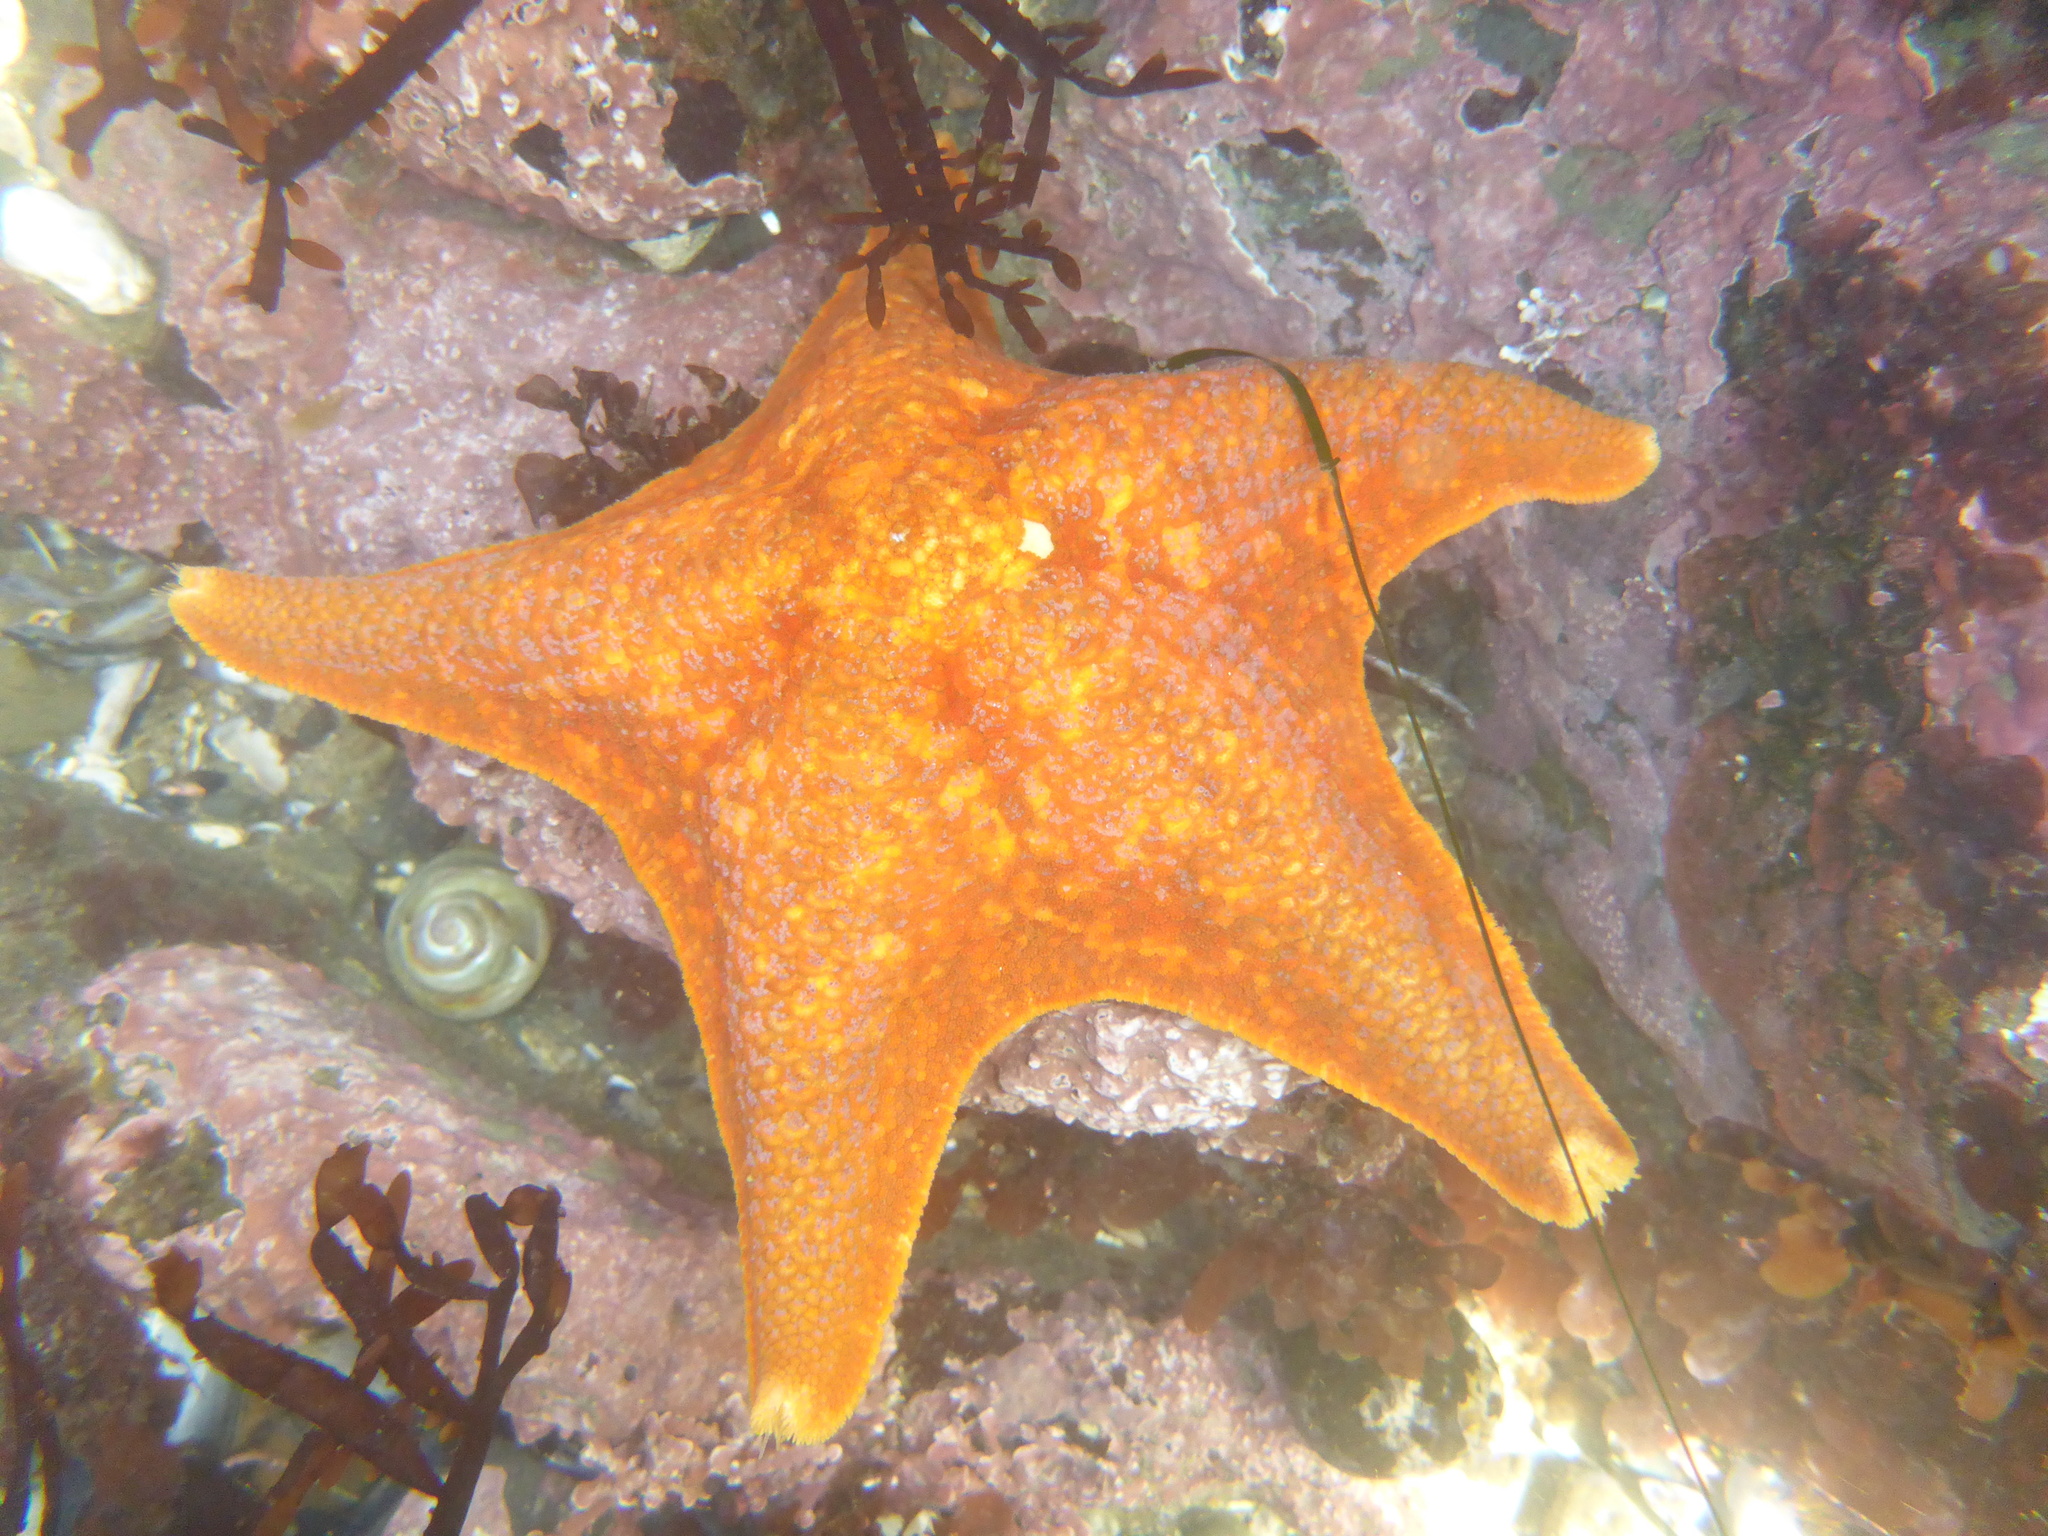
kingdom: Animalia
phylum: Annelida
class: Polychaeta
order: Phyllodocida
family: Hesionidae
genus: Oxydromus
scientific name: Oxydromus pugettensis
